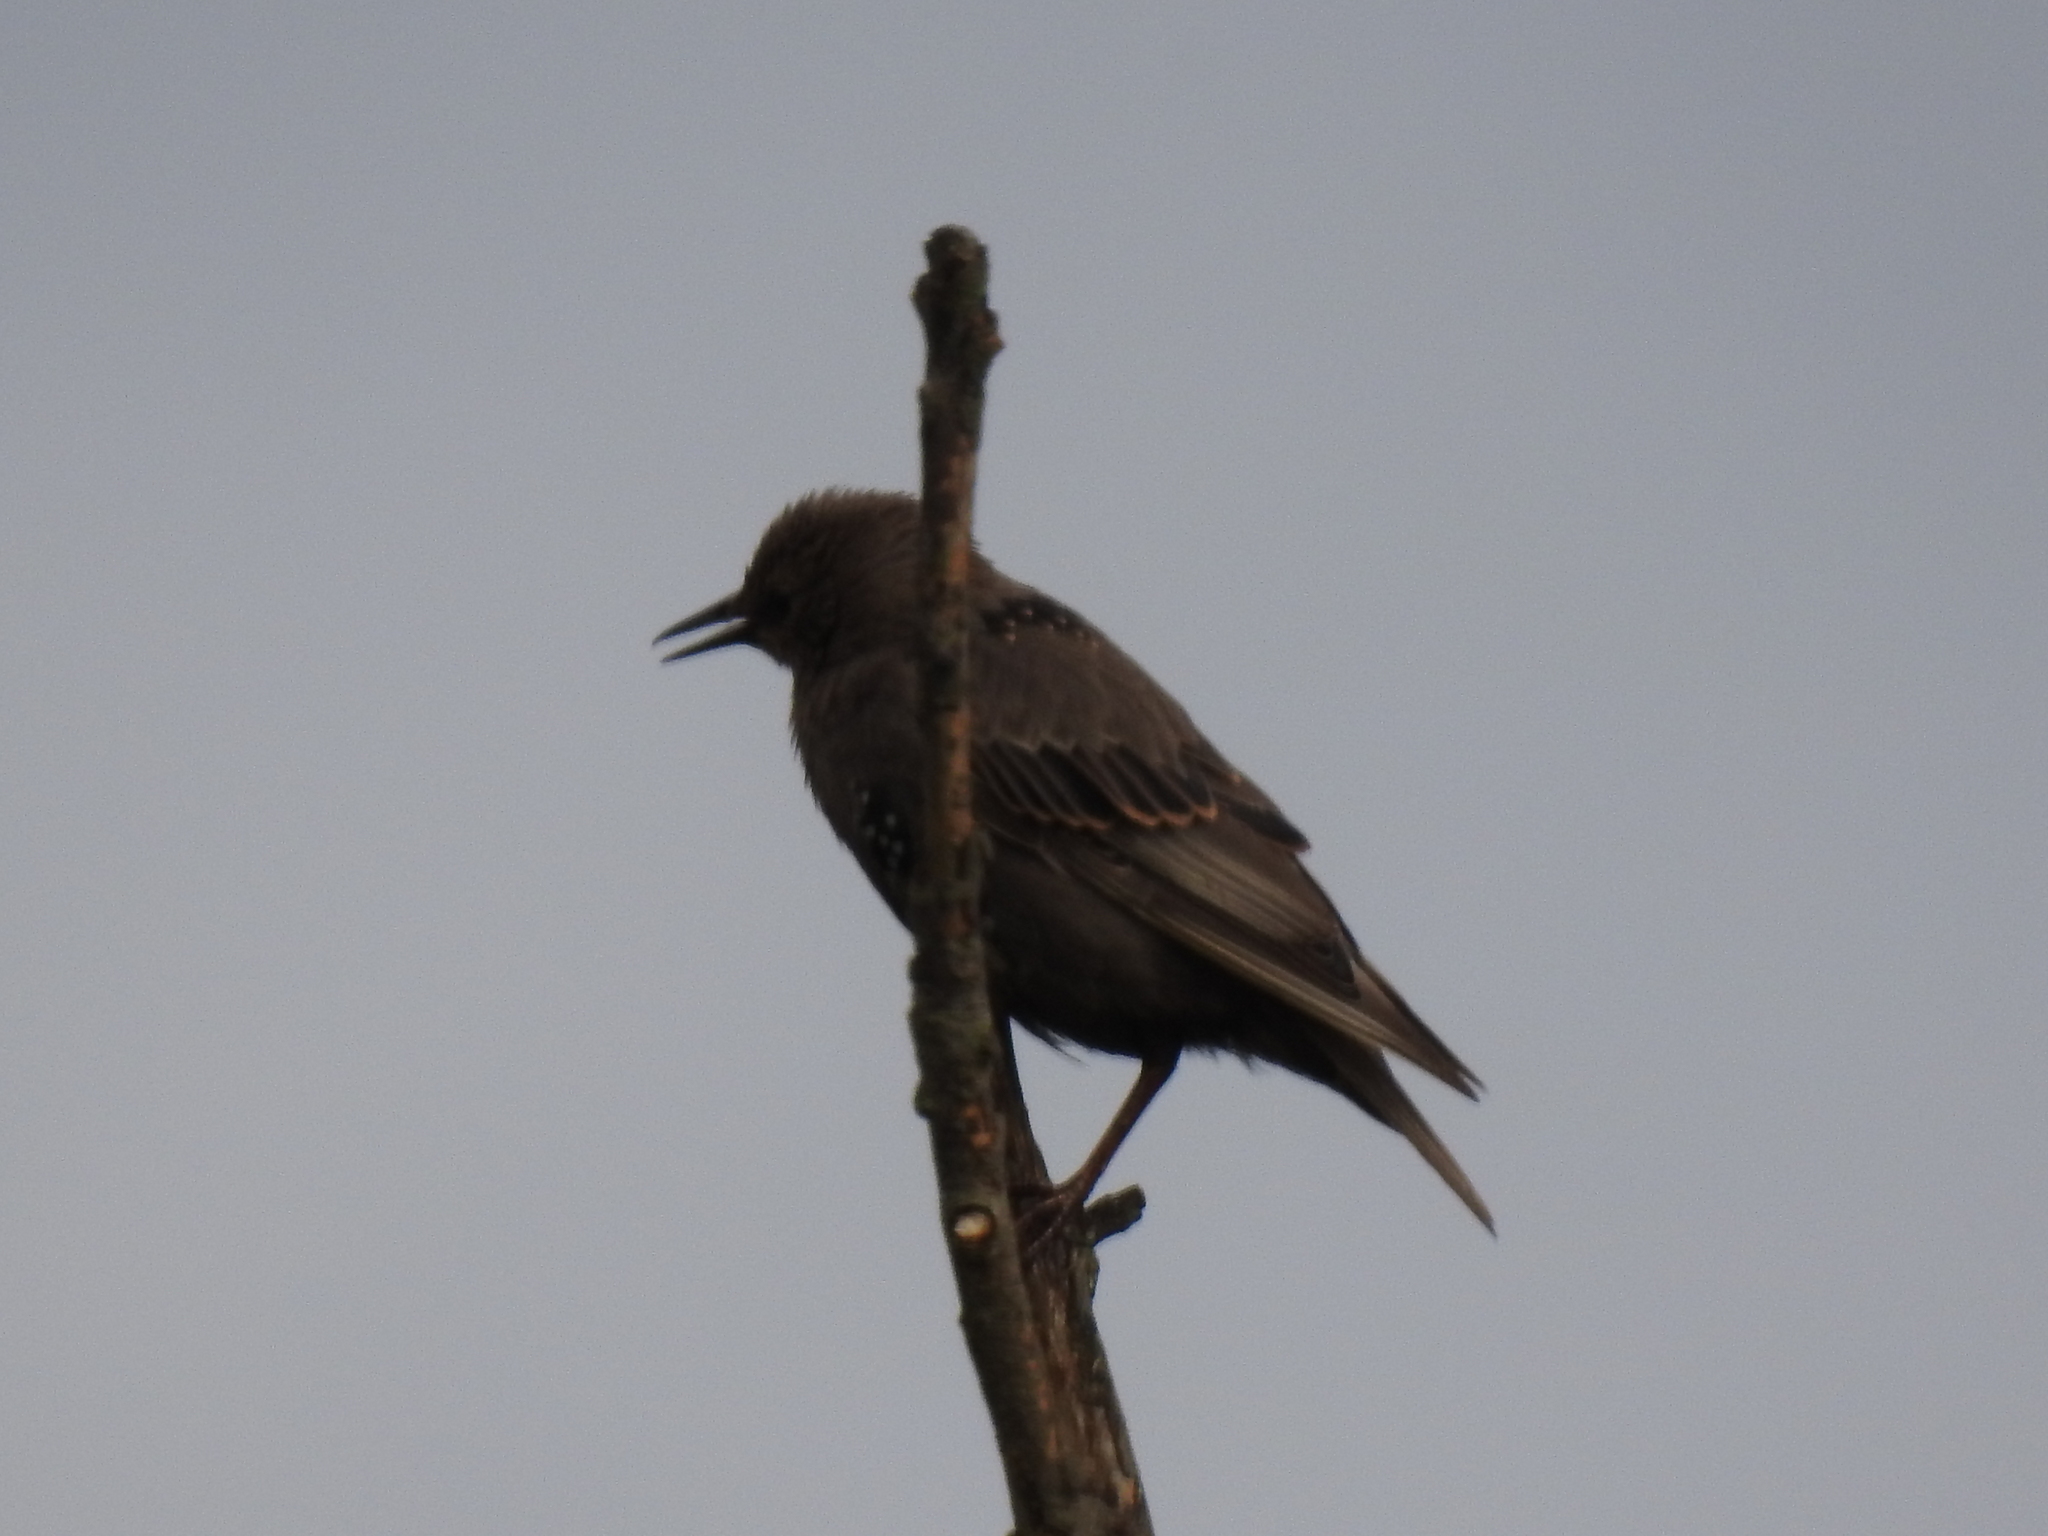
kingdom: Animalia
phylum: Chordata
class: Aves
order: Passeriformes
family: Sturnidae
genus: Sturnus
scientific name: Sturnus vulgaris
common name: Common starling
